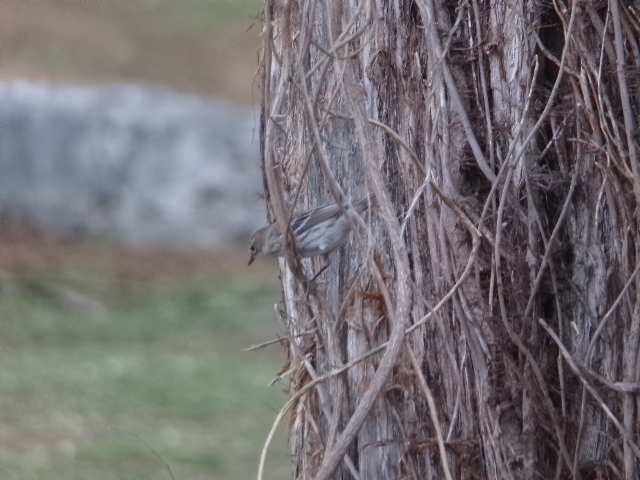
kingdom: Animalia
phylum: Chordata
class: Aves
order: Passeriformes
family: Parulidae
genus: Setophaga
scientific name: Setophaga coronata
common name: Myrtle warbler
